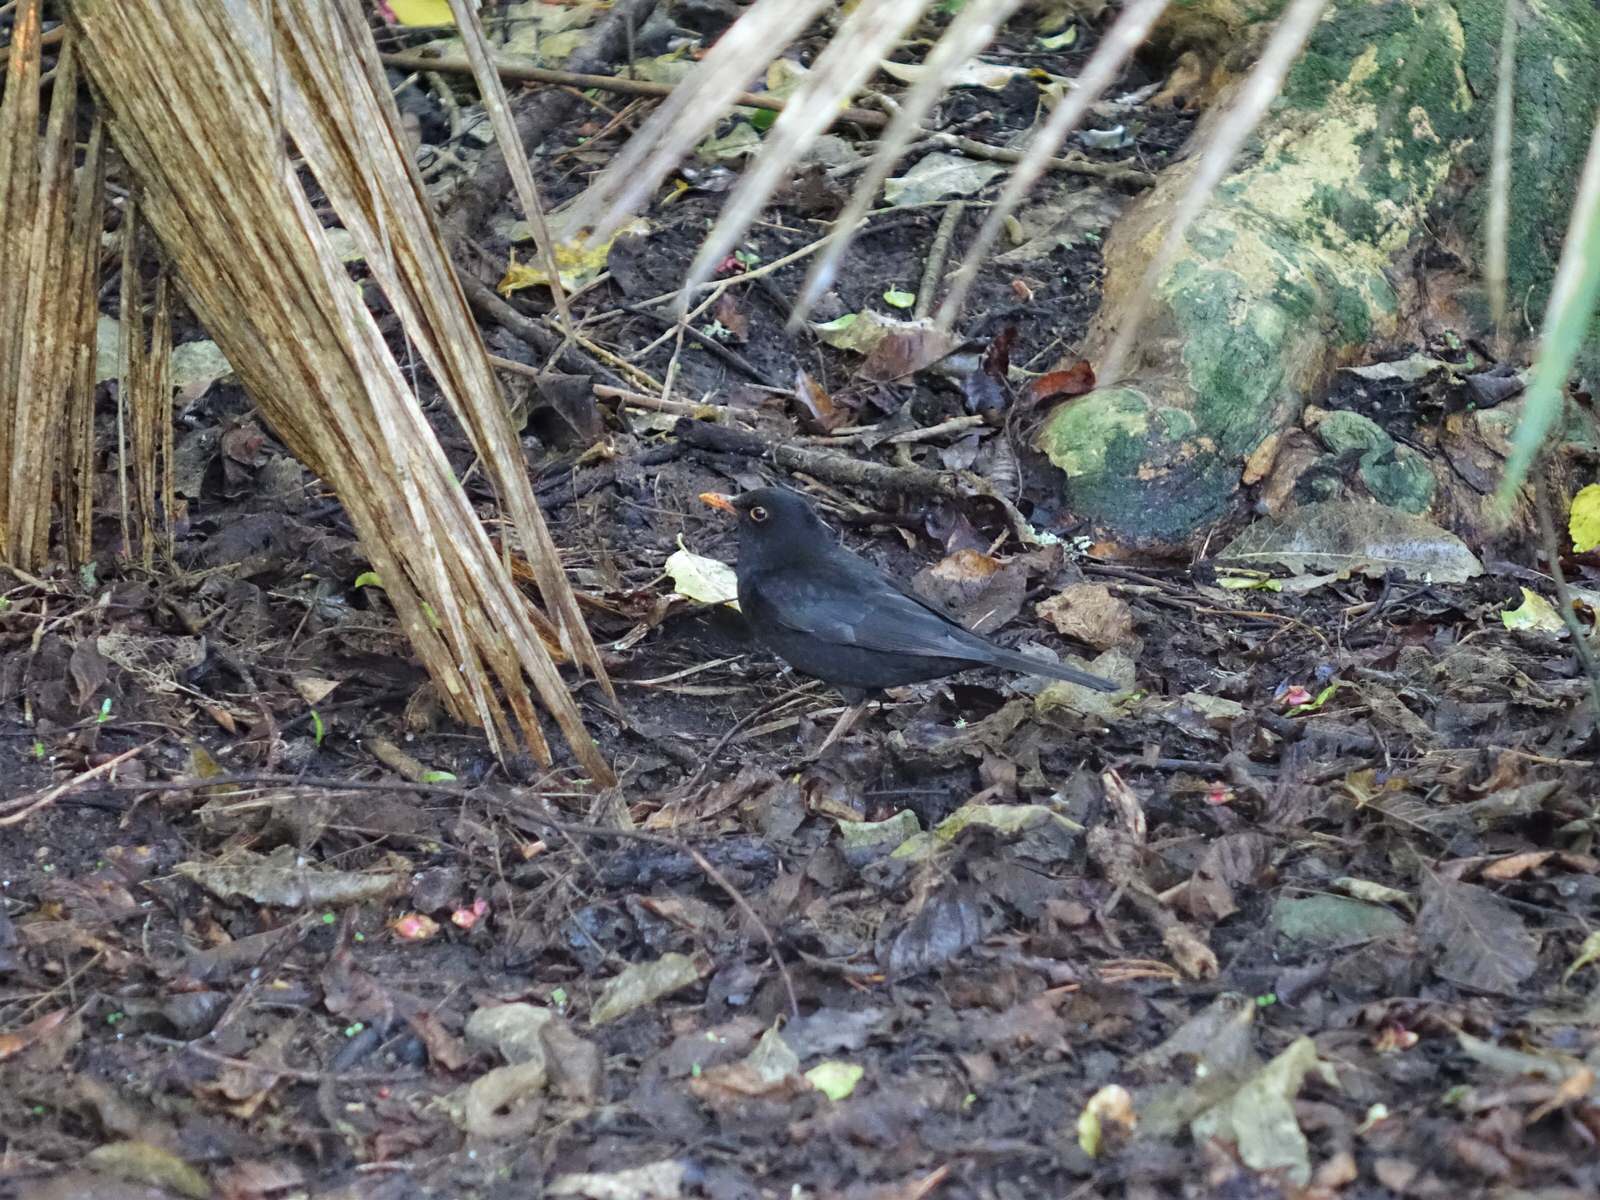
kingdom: Animalia
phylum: Chordata
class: Aves
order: Passeriformes
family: Turdidae
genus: Turdus
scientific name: Turdus merula
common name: Common blackbird
